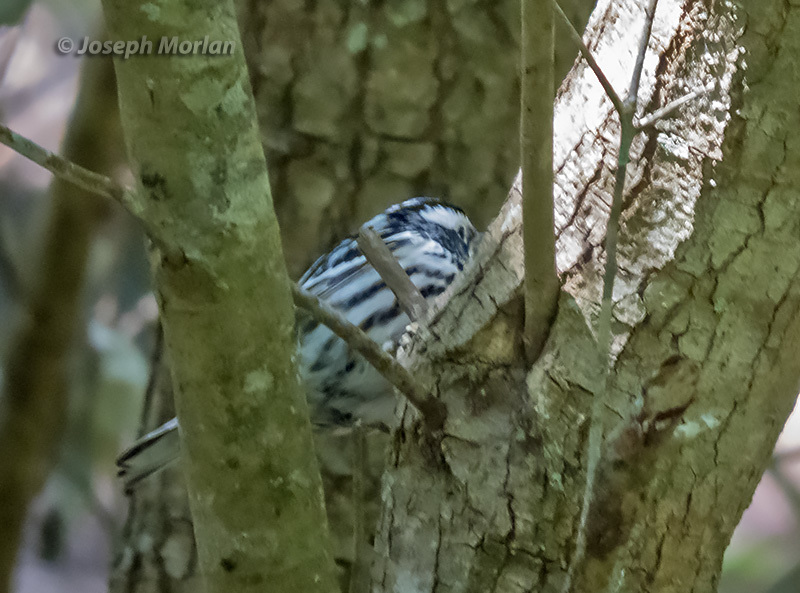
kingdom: Animalia
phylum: Chordata
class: Aves
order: Passeriformes
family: Parulidae
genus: Mniotilta
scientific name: Mniotilta varia
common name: Black-and-white warbler
